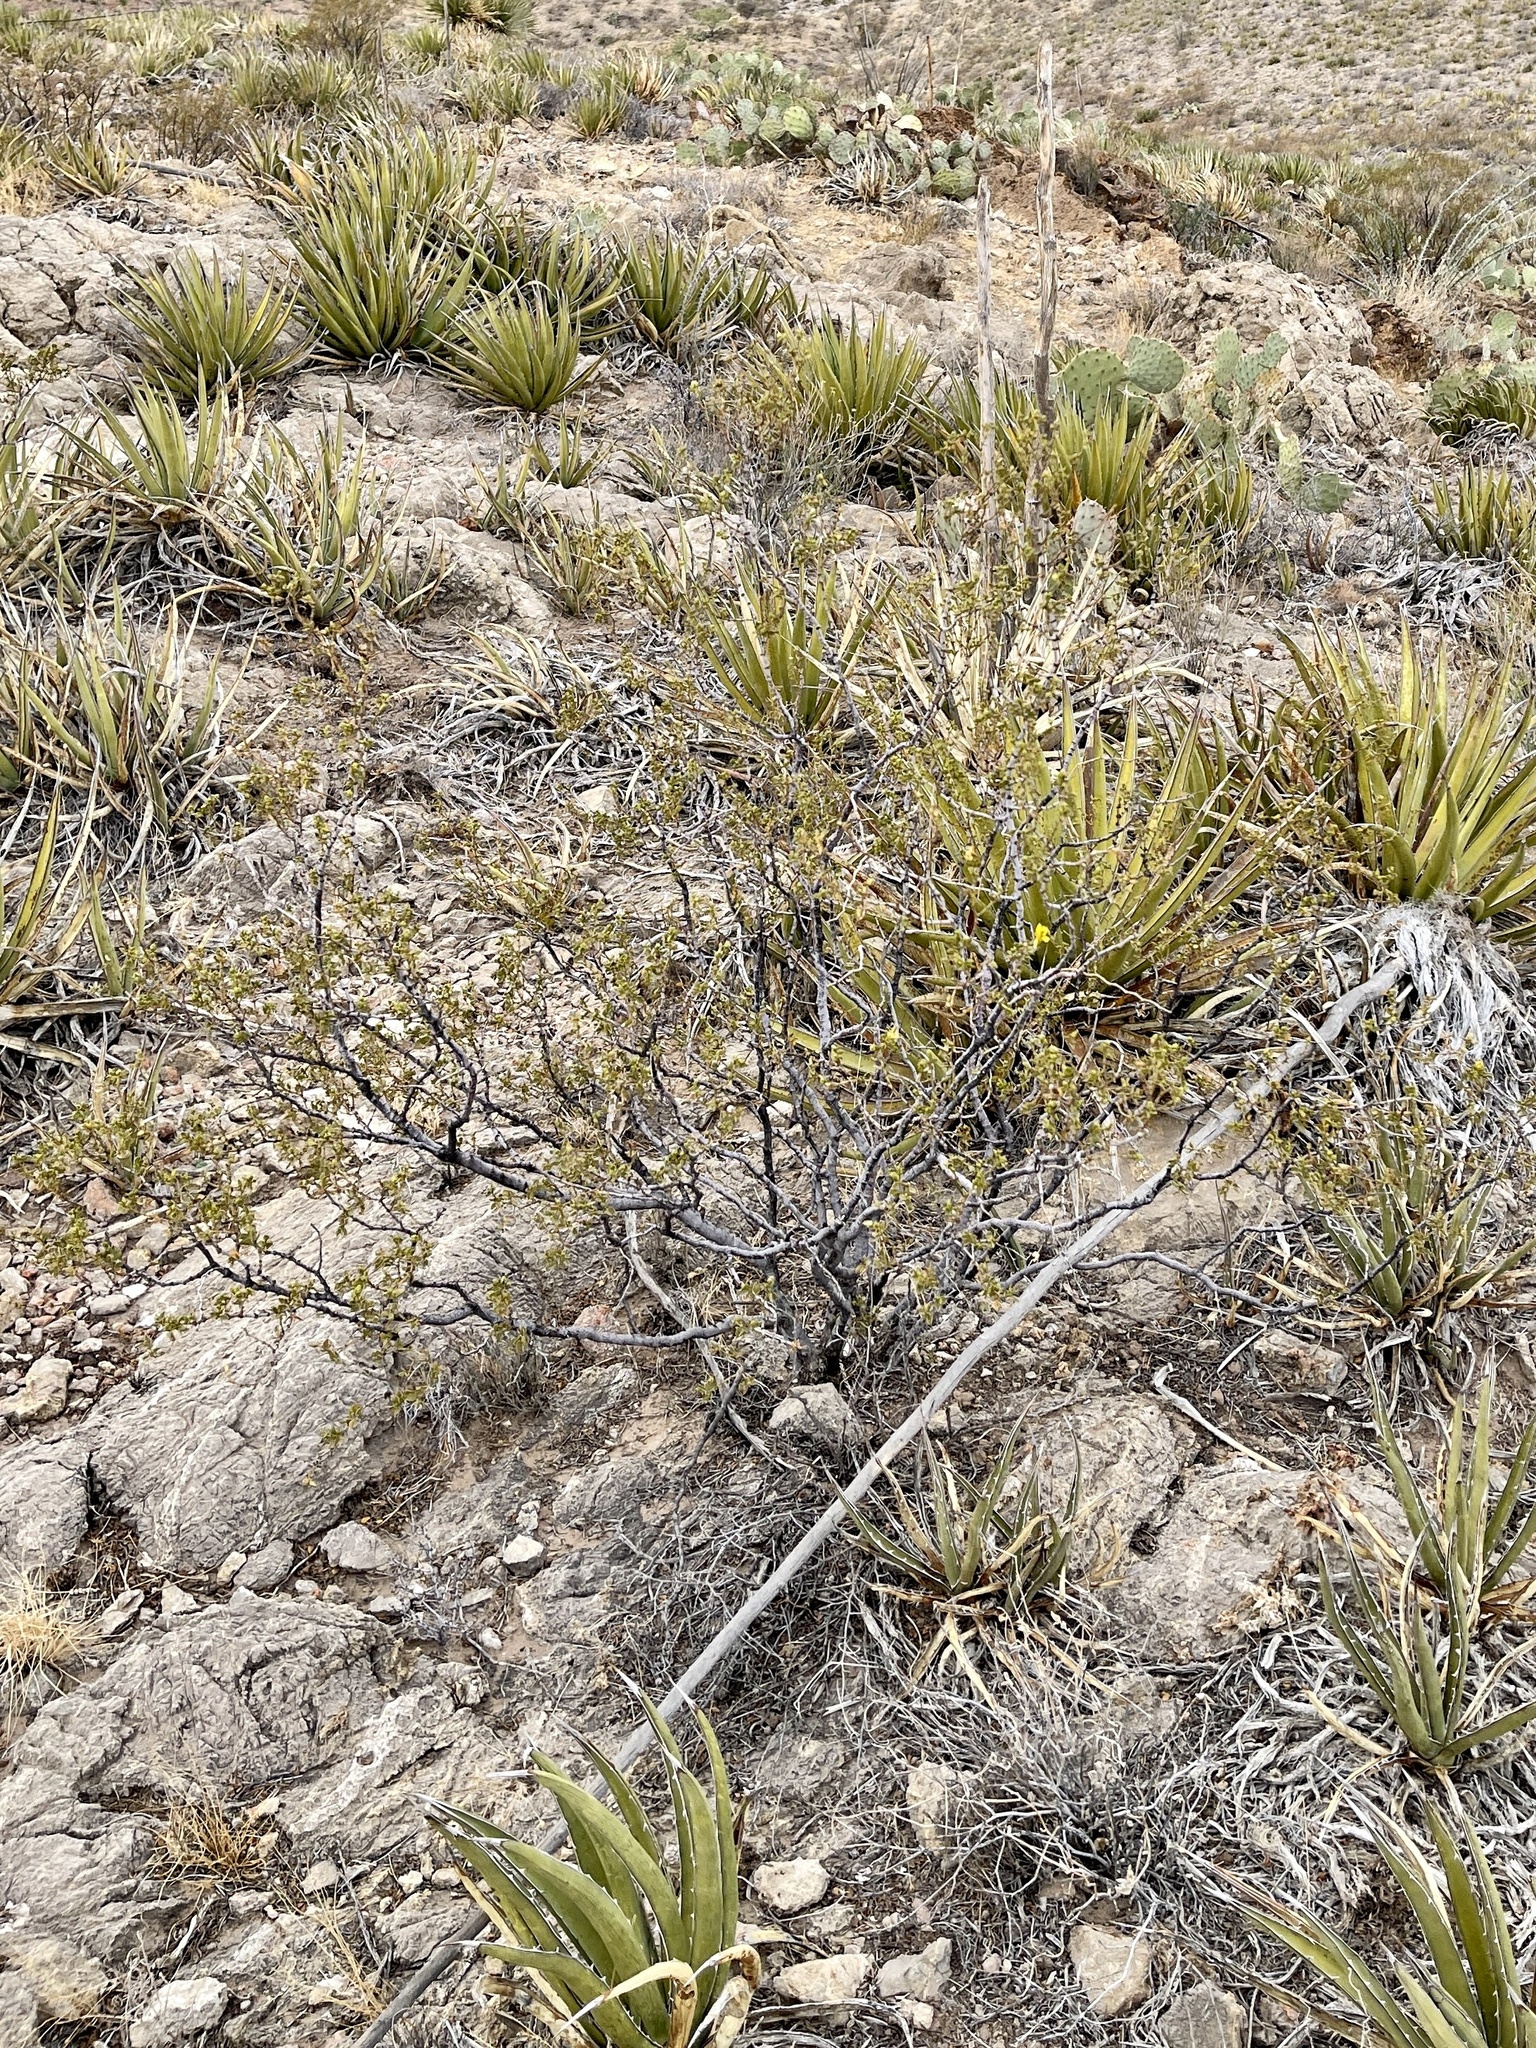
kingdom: Plantae
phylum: Tracheophyta
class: Magnoliopsida
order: Zygophyllales
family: Zygophyllaceae
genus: Larrea
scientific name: Larrea tridentata
